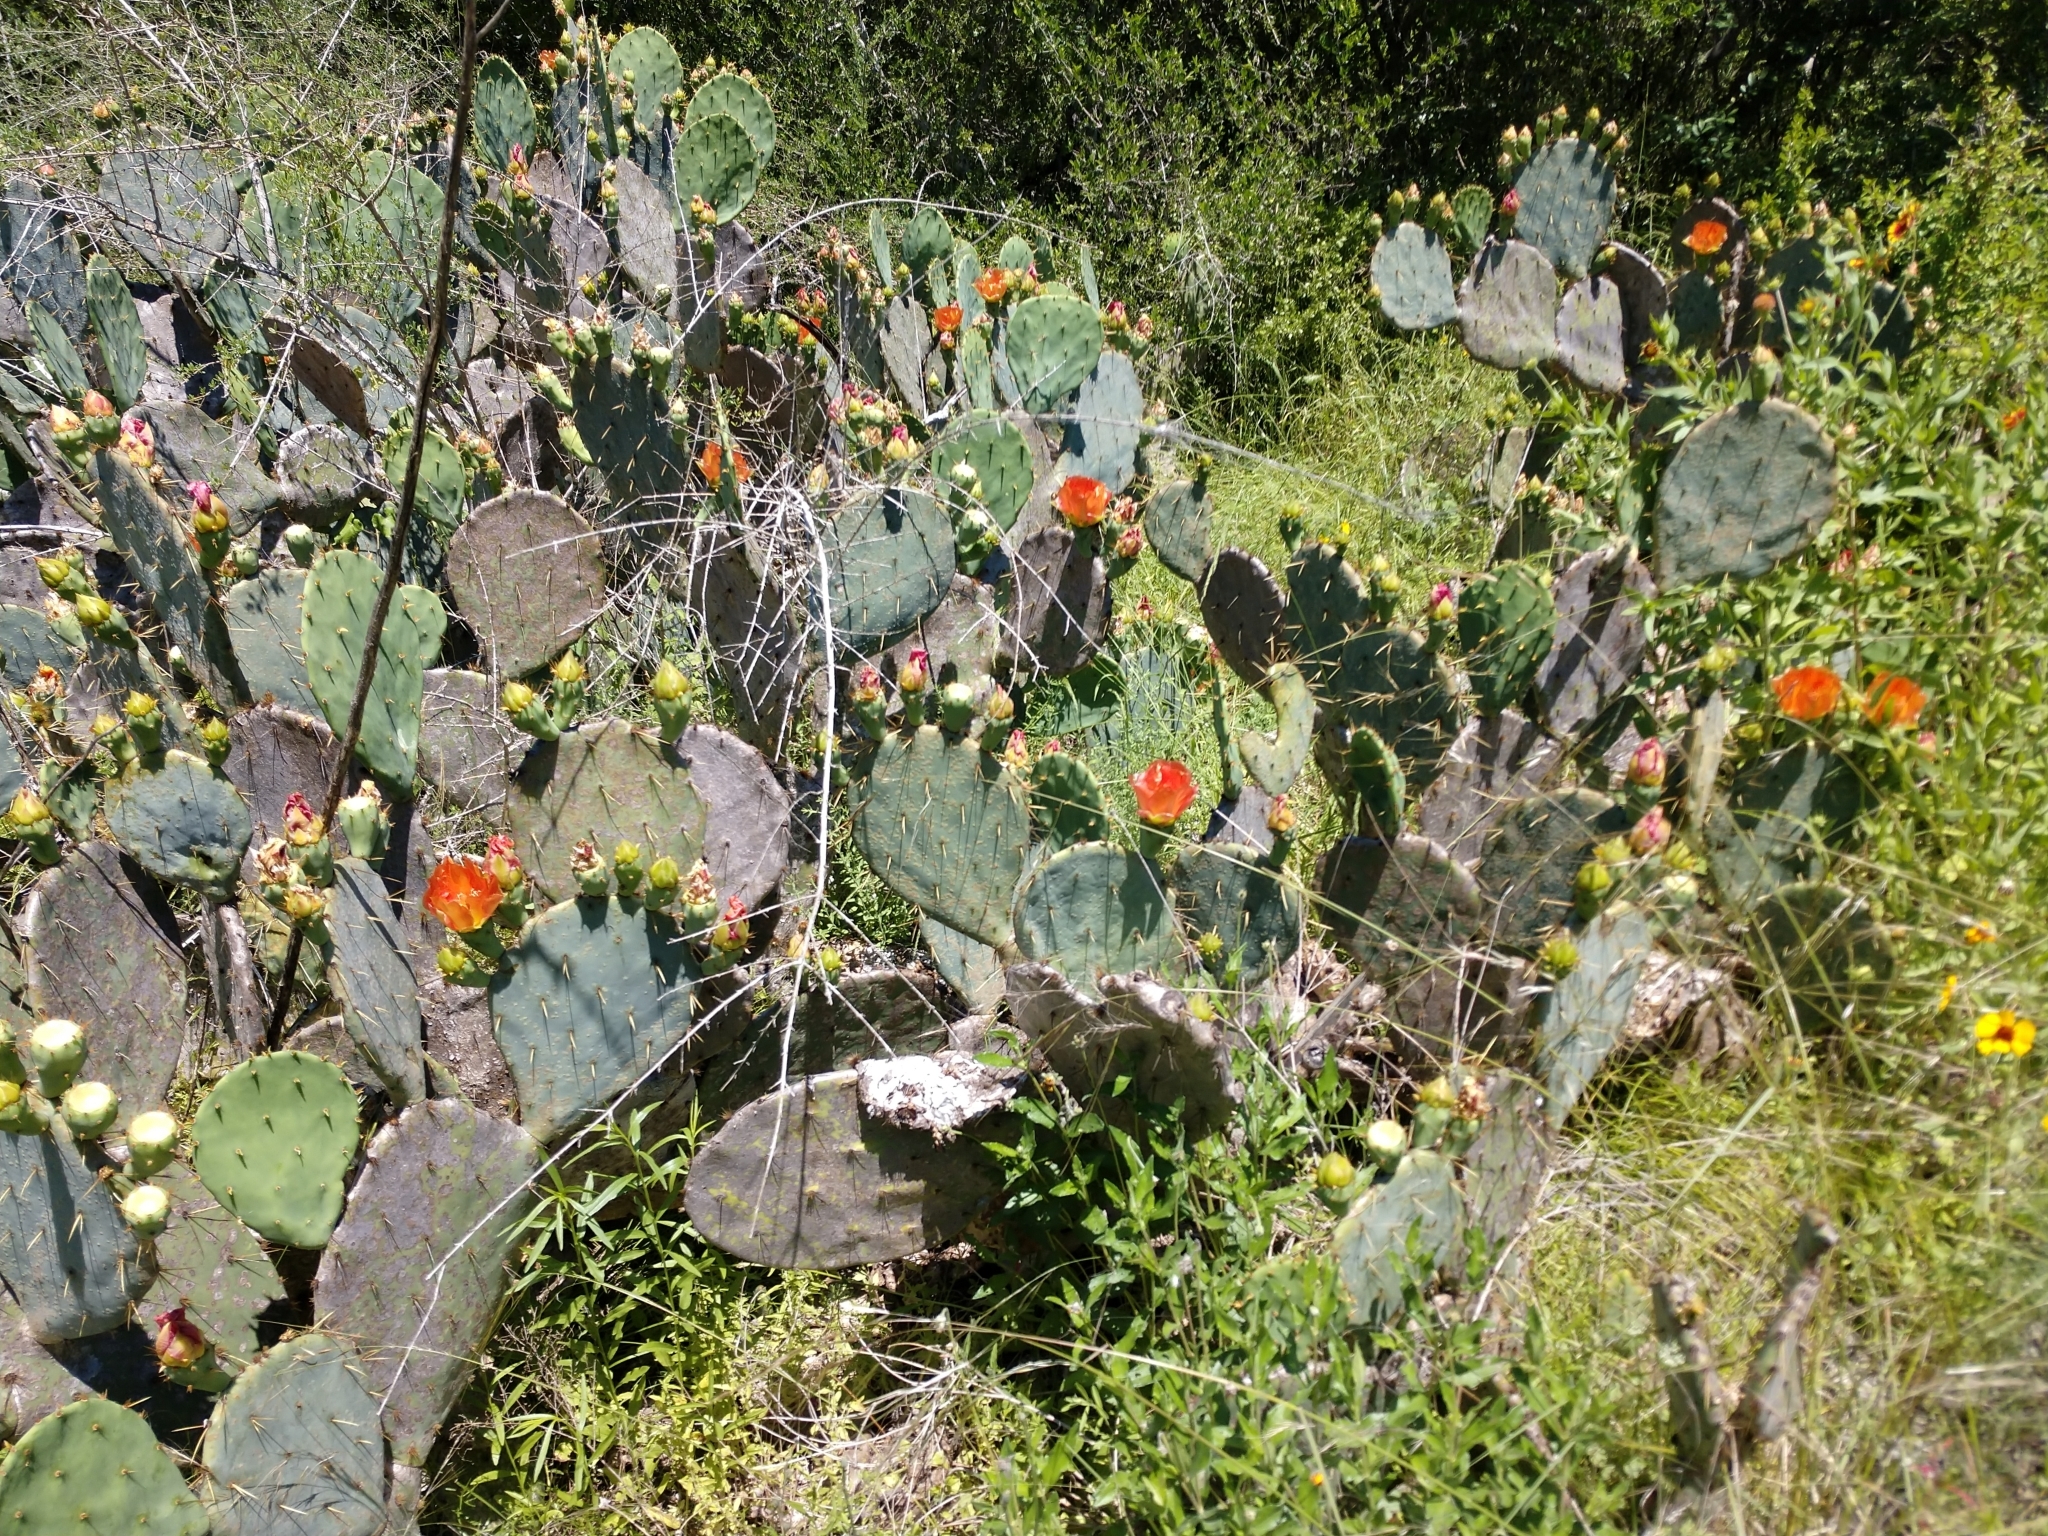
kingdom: Plantae
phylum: Tracheophyta
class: Magnoliopsida
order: Caryophyllales
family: Cactaceae
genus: Opuntia
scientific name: Opuntia engelmannii
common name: Cactus-apple
